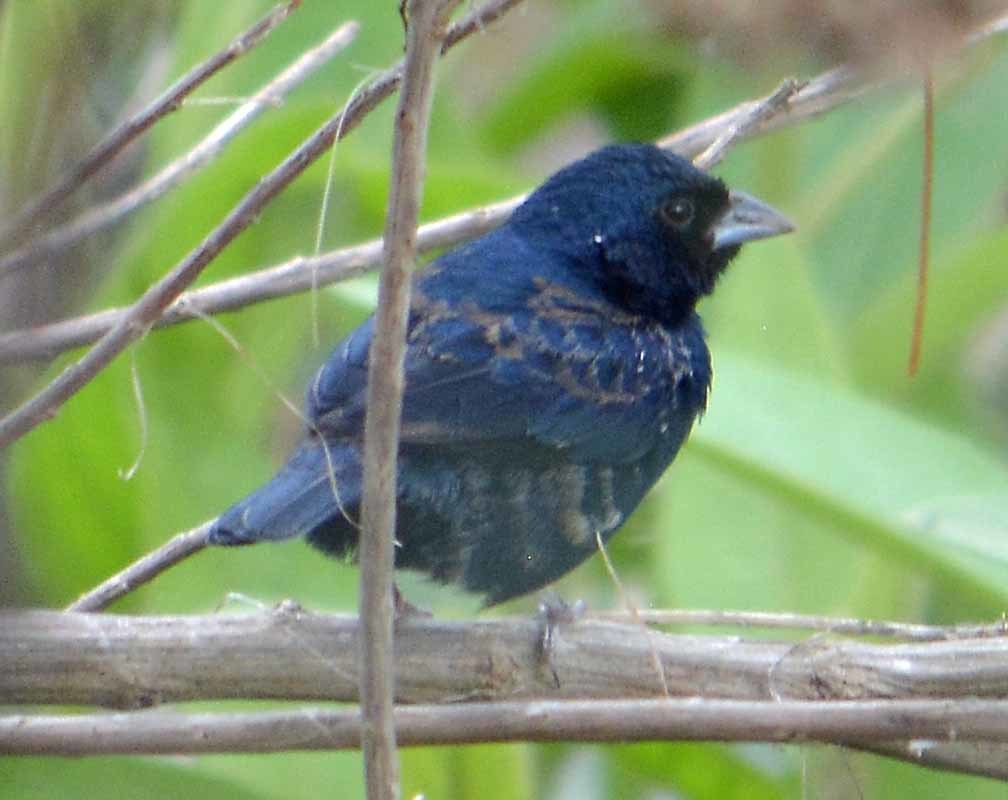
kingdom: Animalia
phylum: Chordata
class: Aves
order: Passeriformes
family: Thraupidae
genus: Volatinia
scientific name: Volatinia jacarina
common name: Blue-black grassquit
